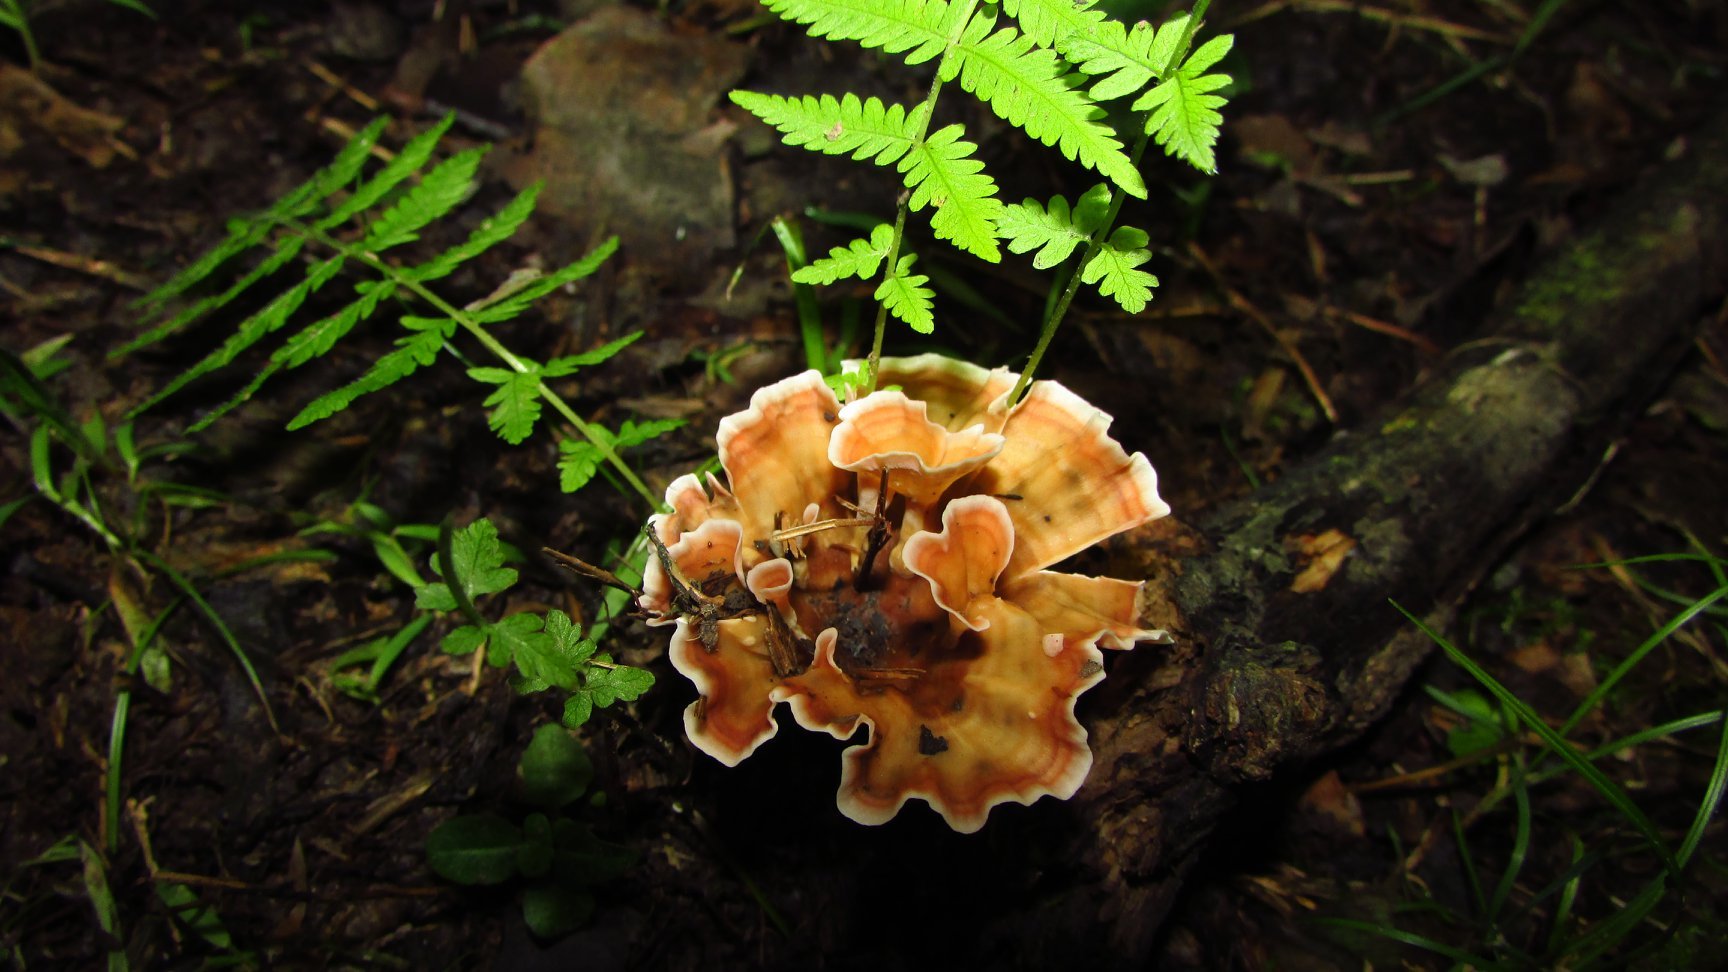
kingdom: Fungi
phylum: Basidiomycota
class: Agaricomycetes
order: Polyporales
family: Podoscyphaceae
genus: Podoscypha
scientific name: Podoscypha petalodes
